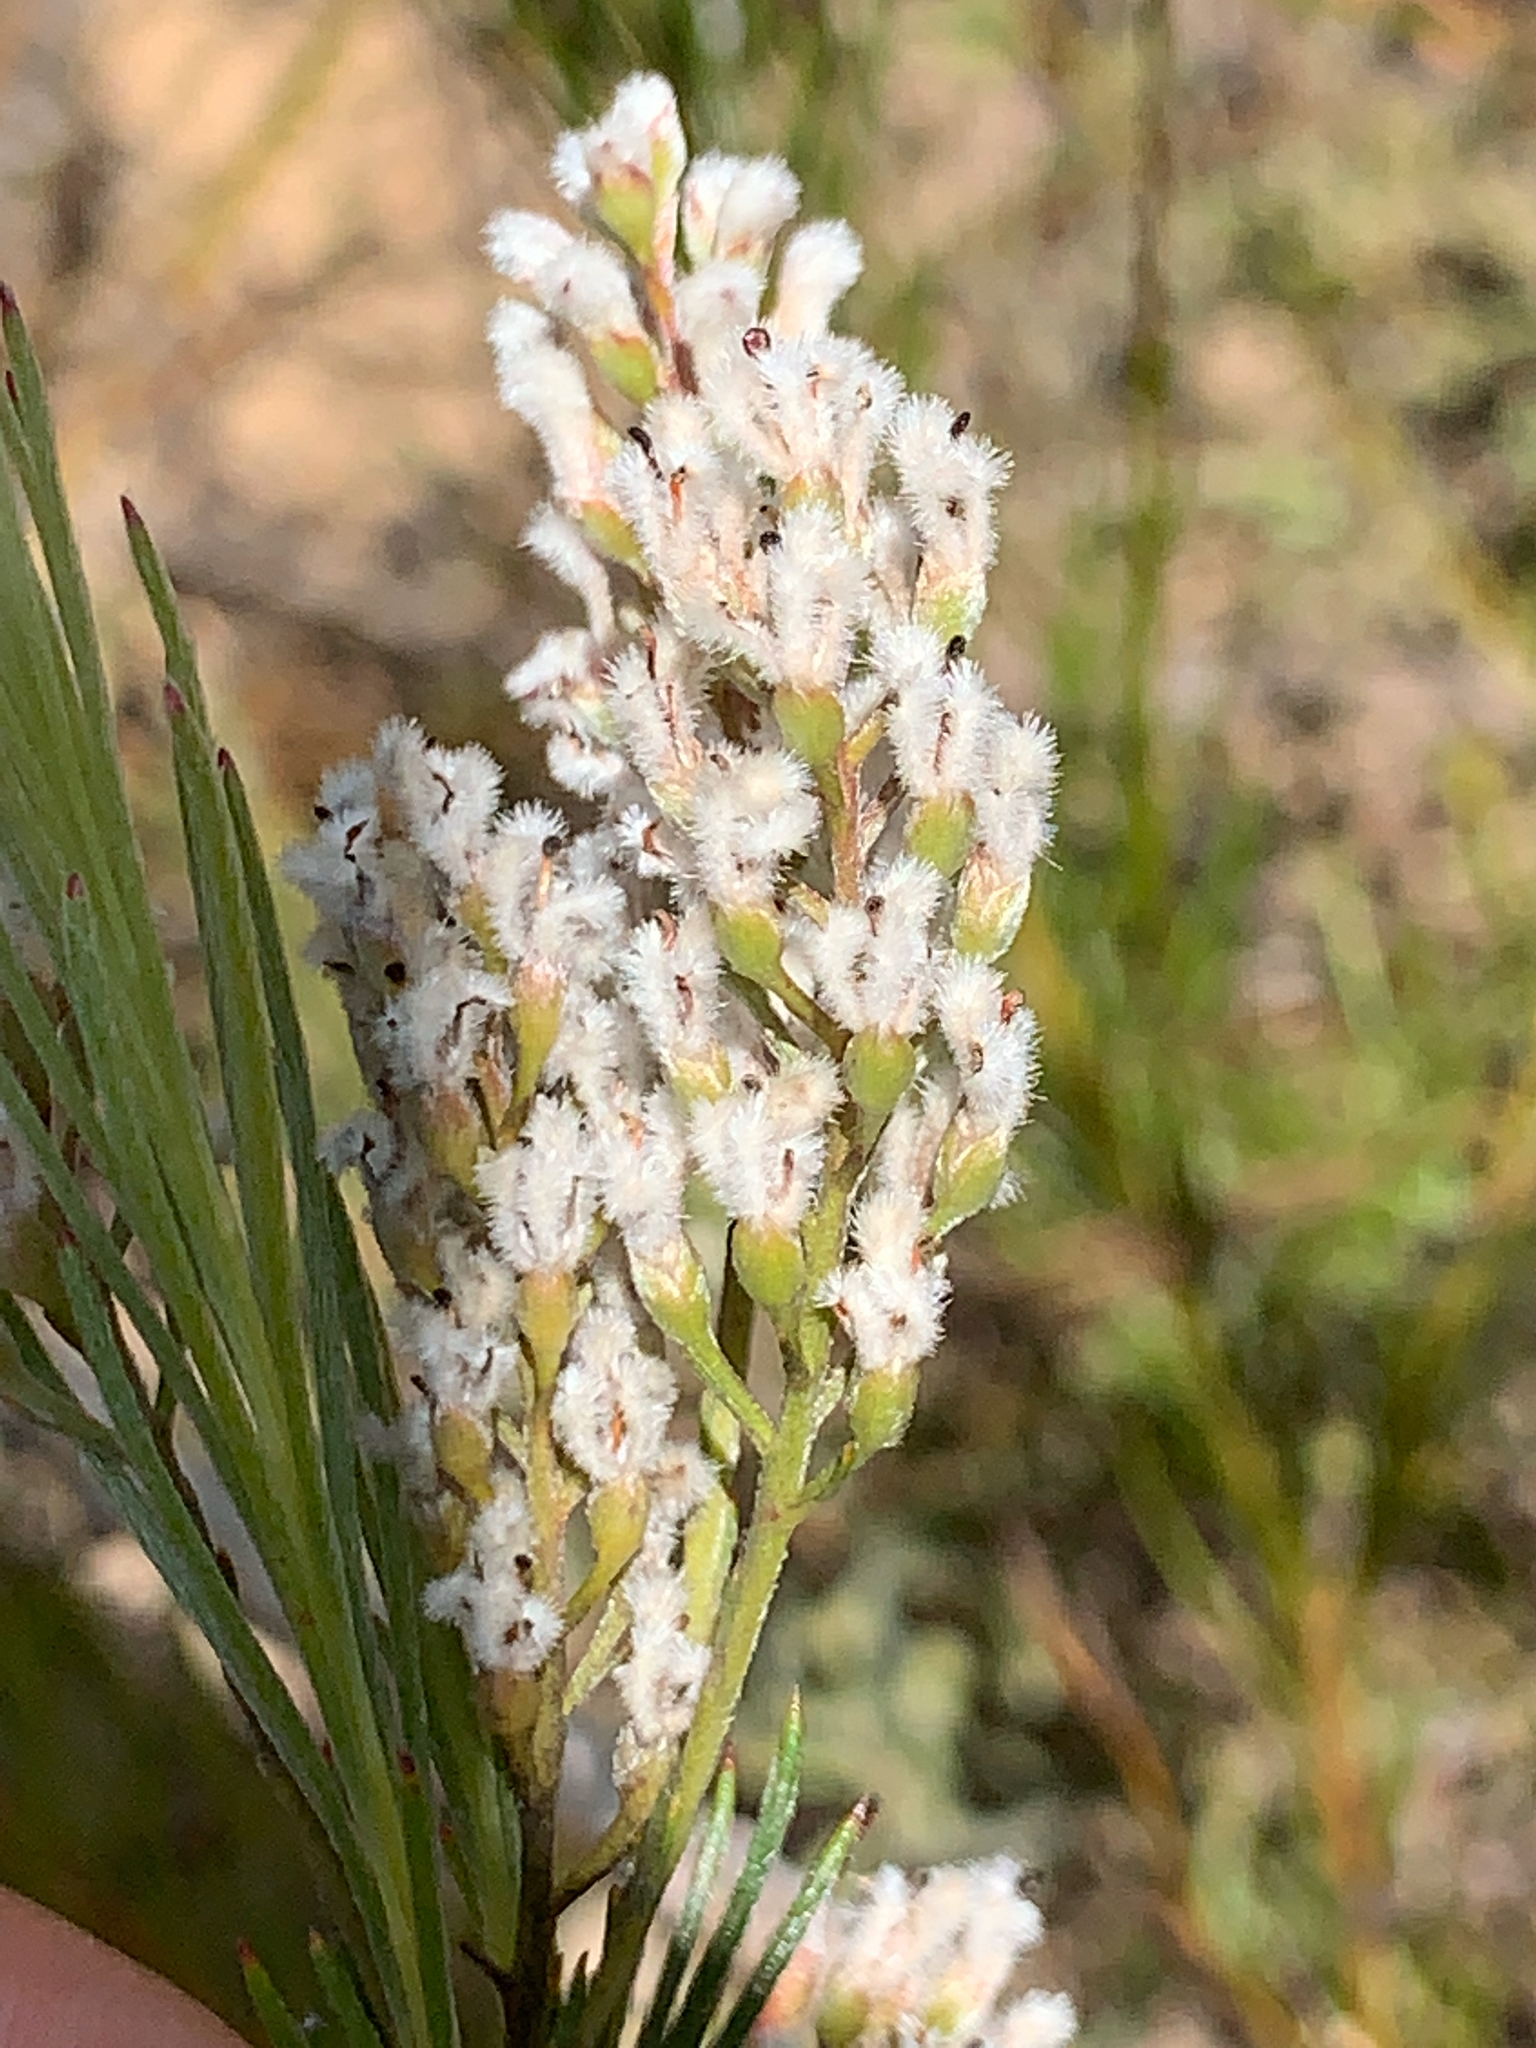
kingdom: Plantae
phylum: Tracheophyta
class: Magnoliopsida
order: Proteales
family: Proteaceae
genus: Spatalla
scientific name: Spatalla racemosa
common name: Lax-stalked spoon
